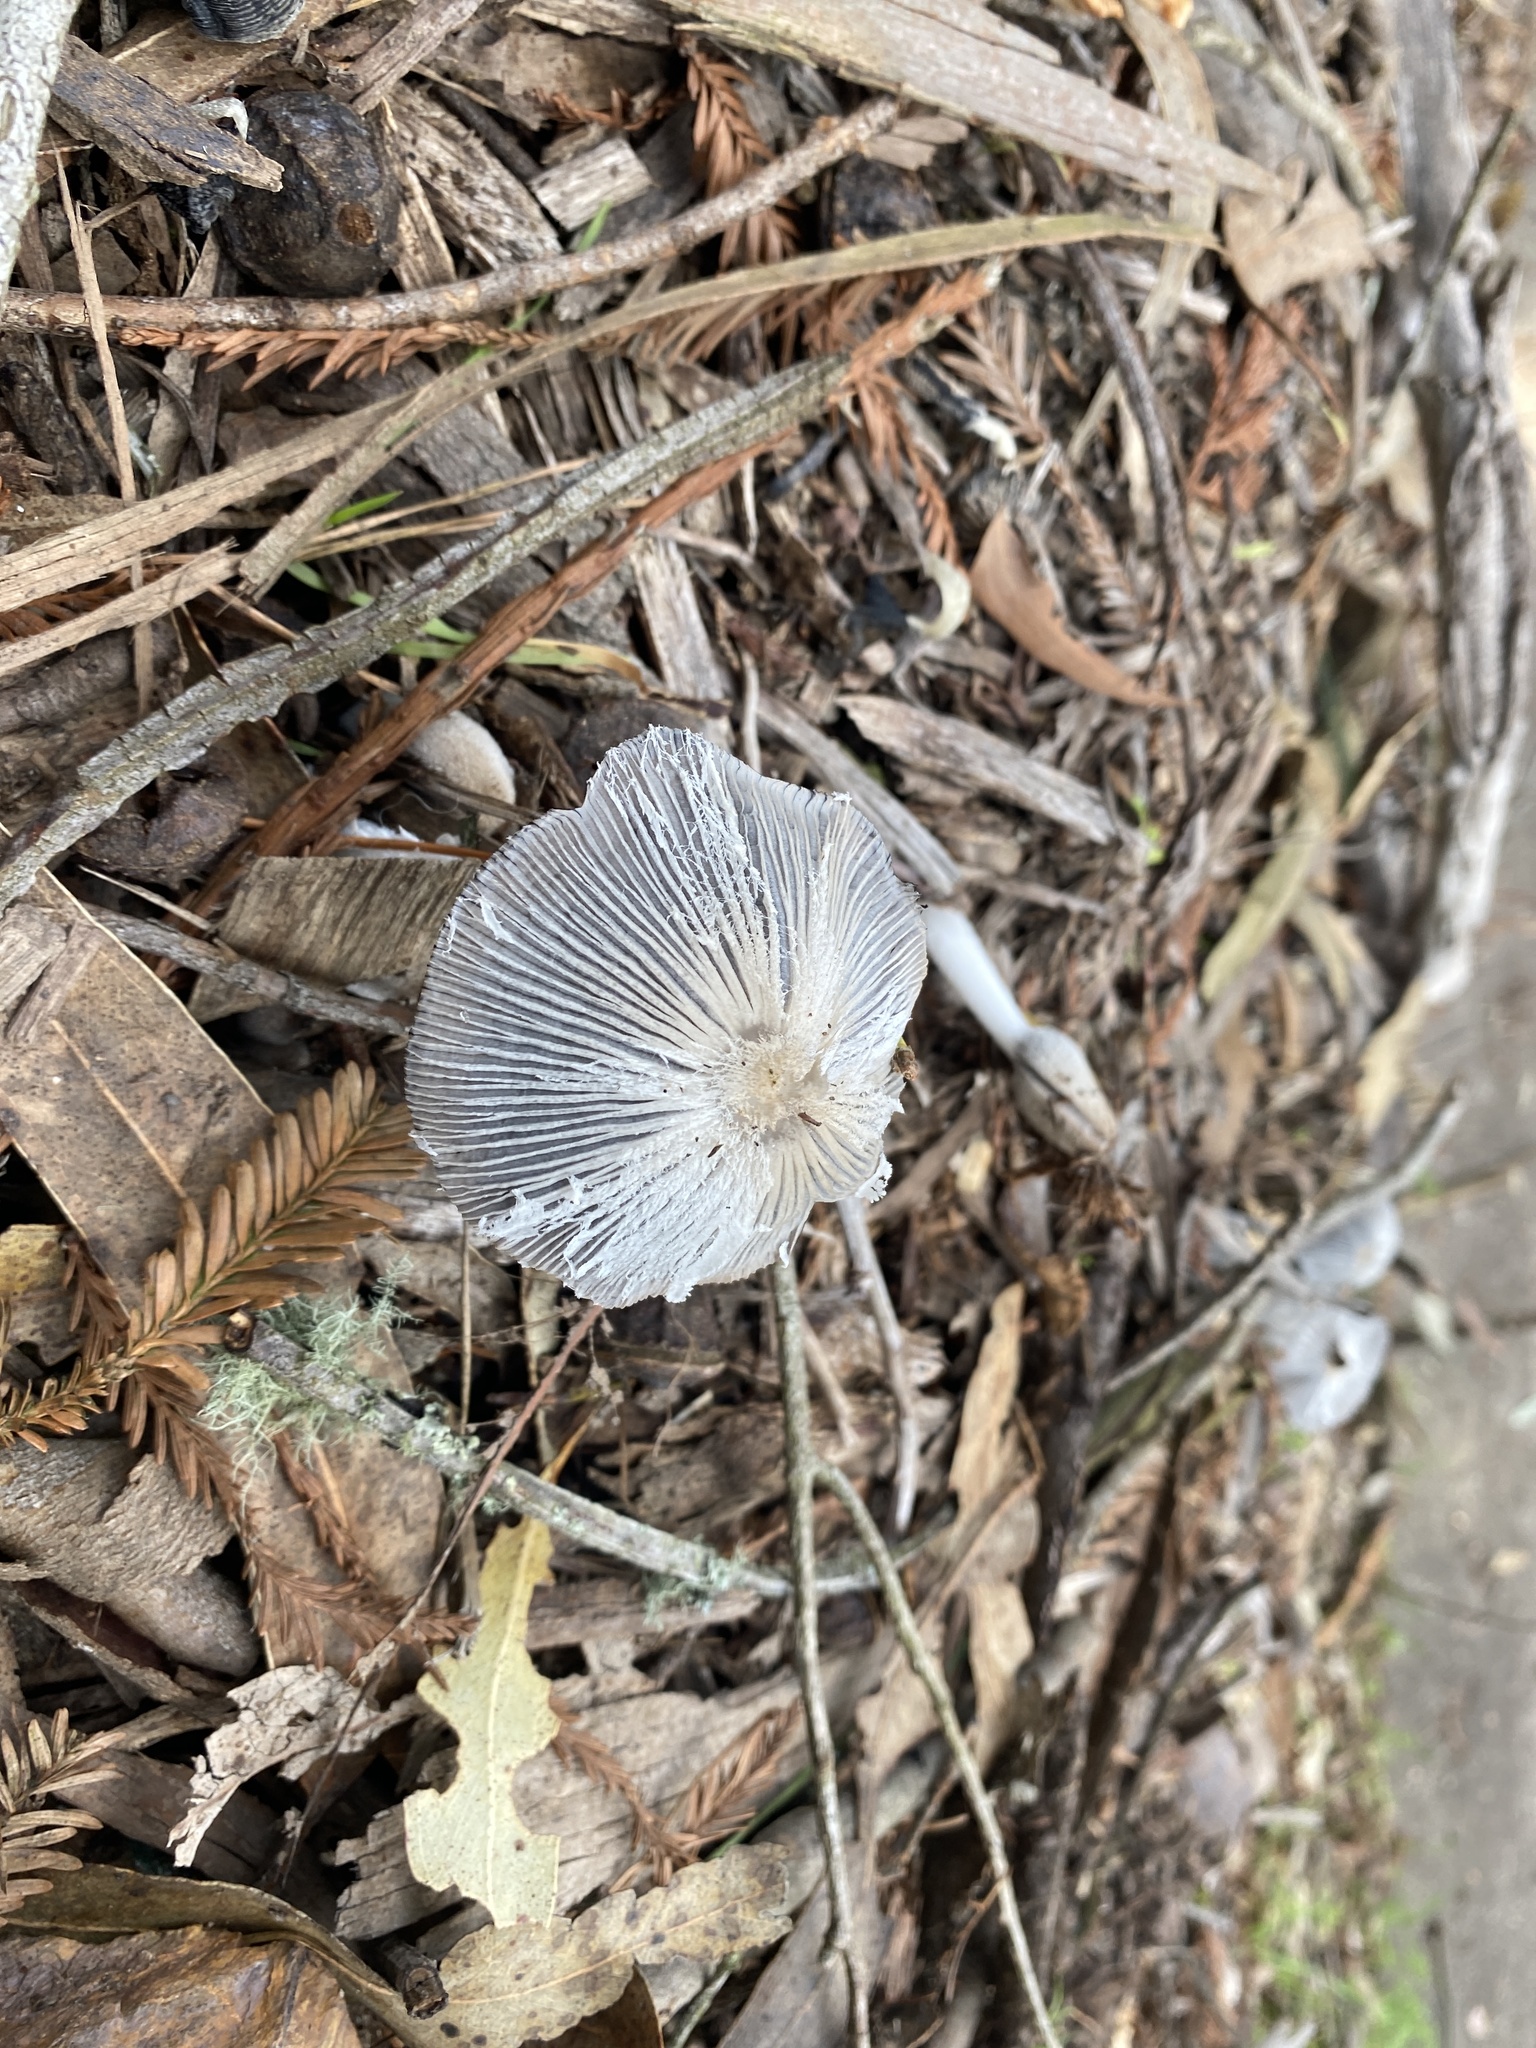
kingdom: Fungi
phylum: Basidiomycota
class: Agaricomycetes
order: Agaricales
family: Psathyrellaceae
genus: Coprinopsis
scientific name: Coprinopsis lagopus
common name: Hare'sfoot inkcap
